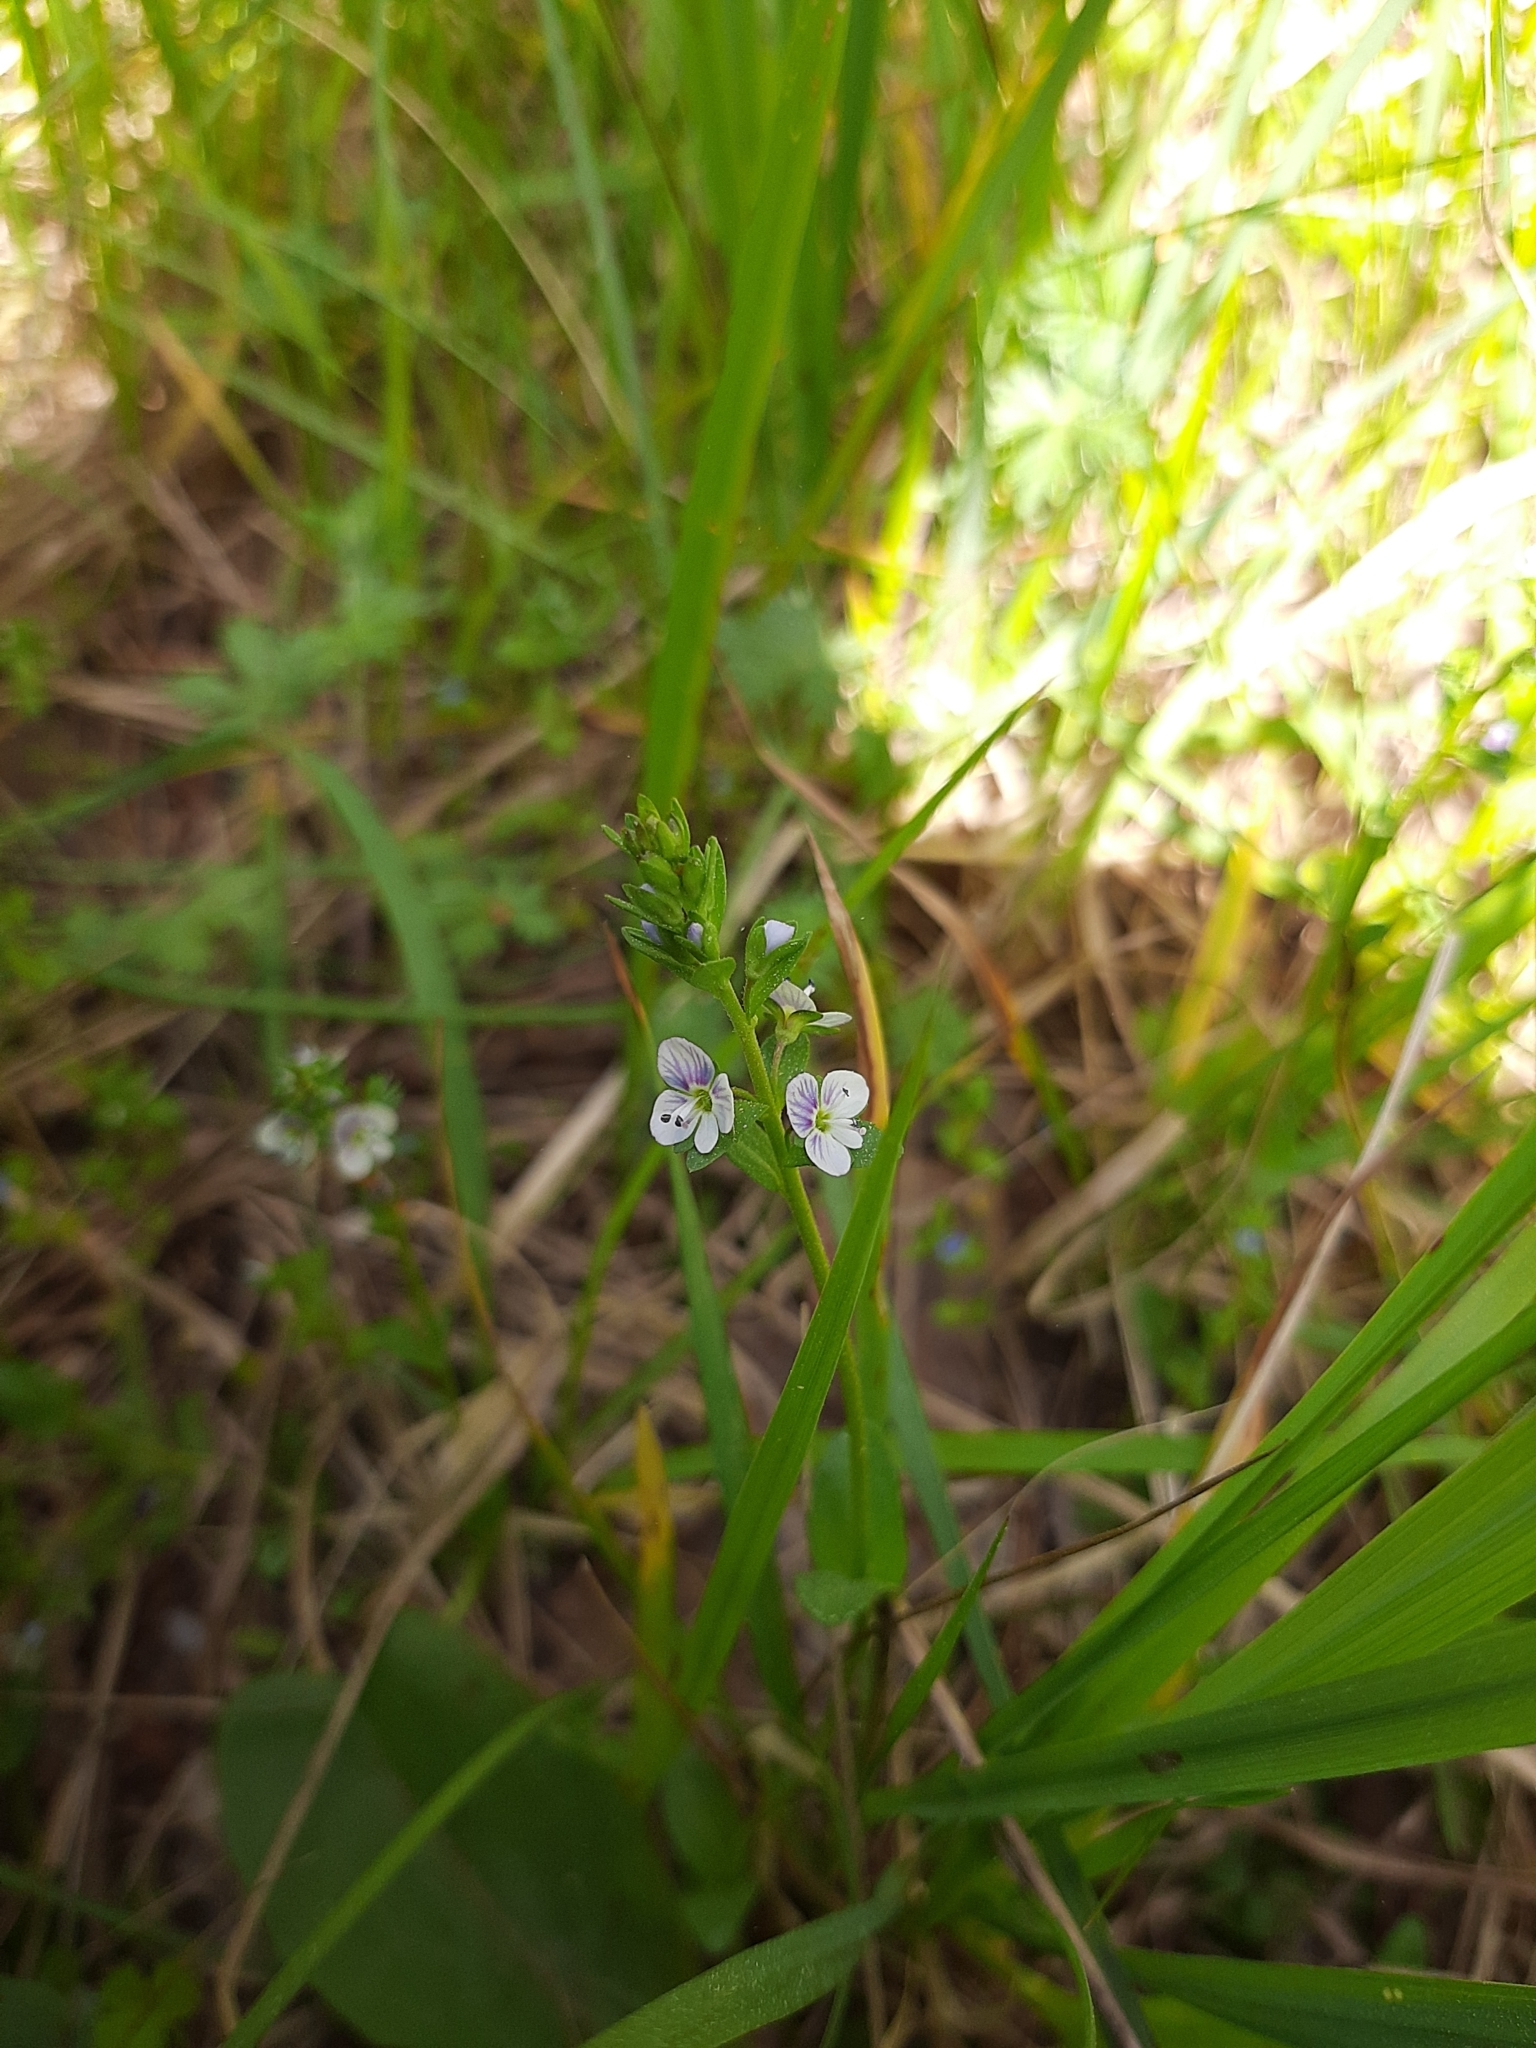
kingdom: Plantae
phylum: Tracheophyta
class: Magnoliopsida
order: Lamiales
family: Plantaginaceae
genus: Veronica
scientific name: Veronica serpyllifolia
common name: Thyme-leaved speedwell
